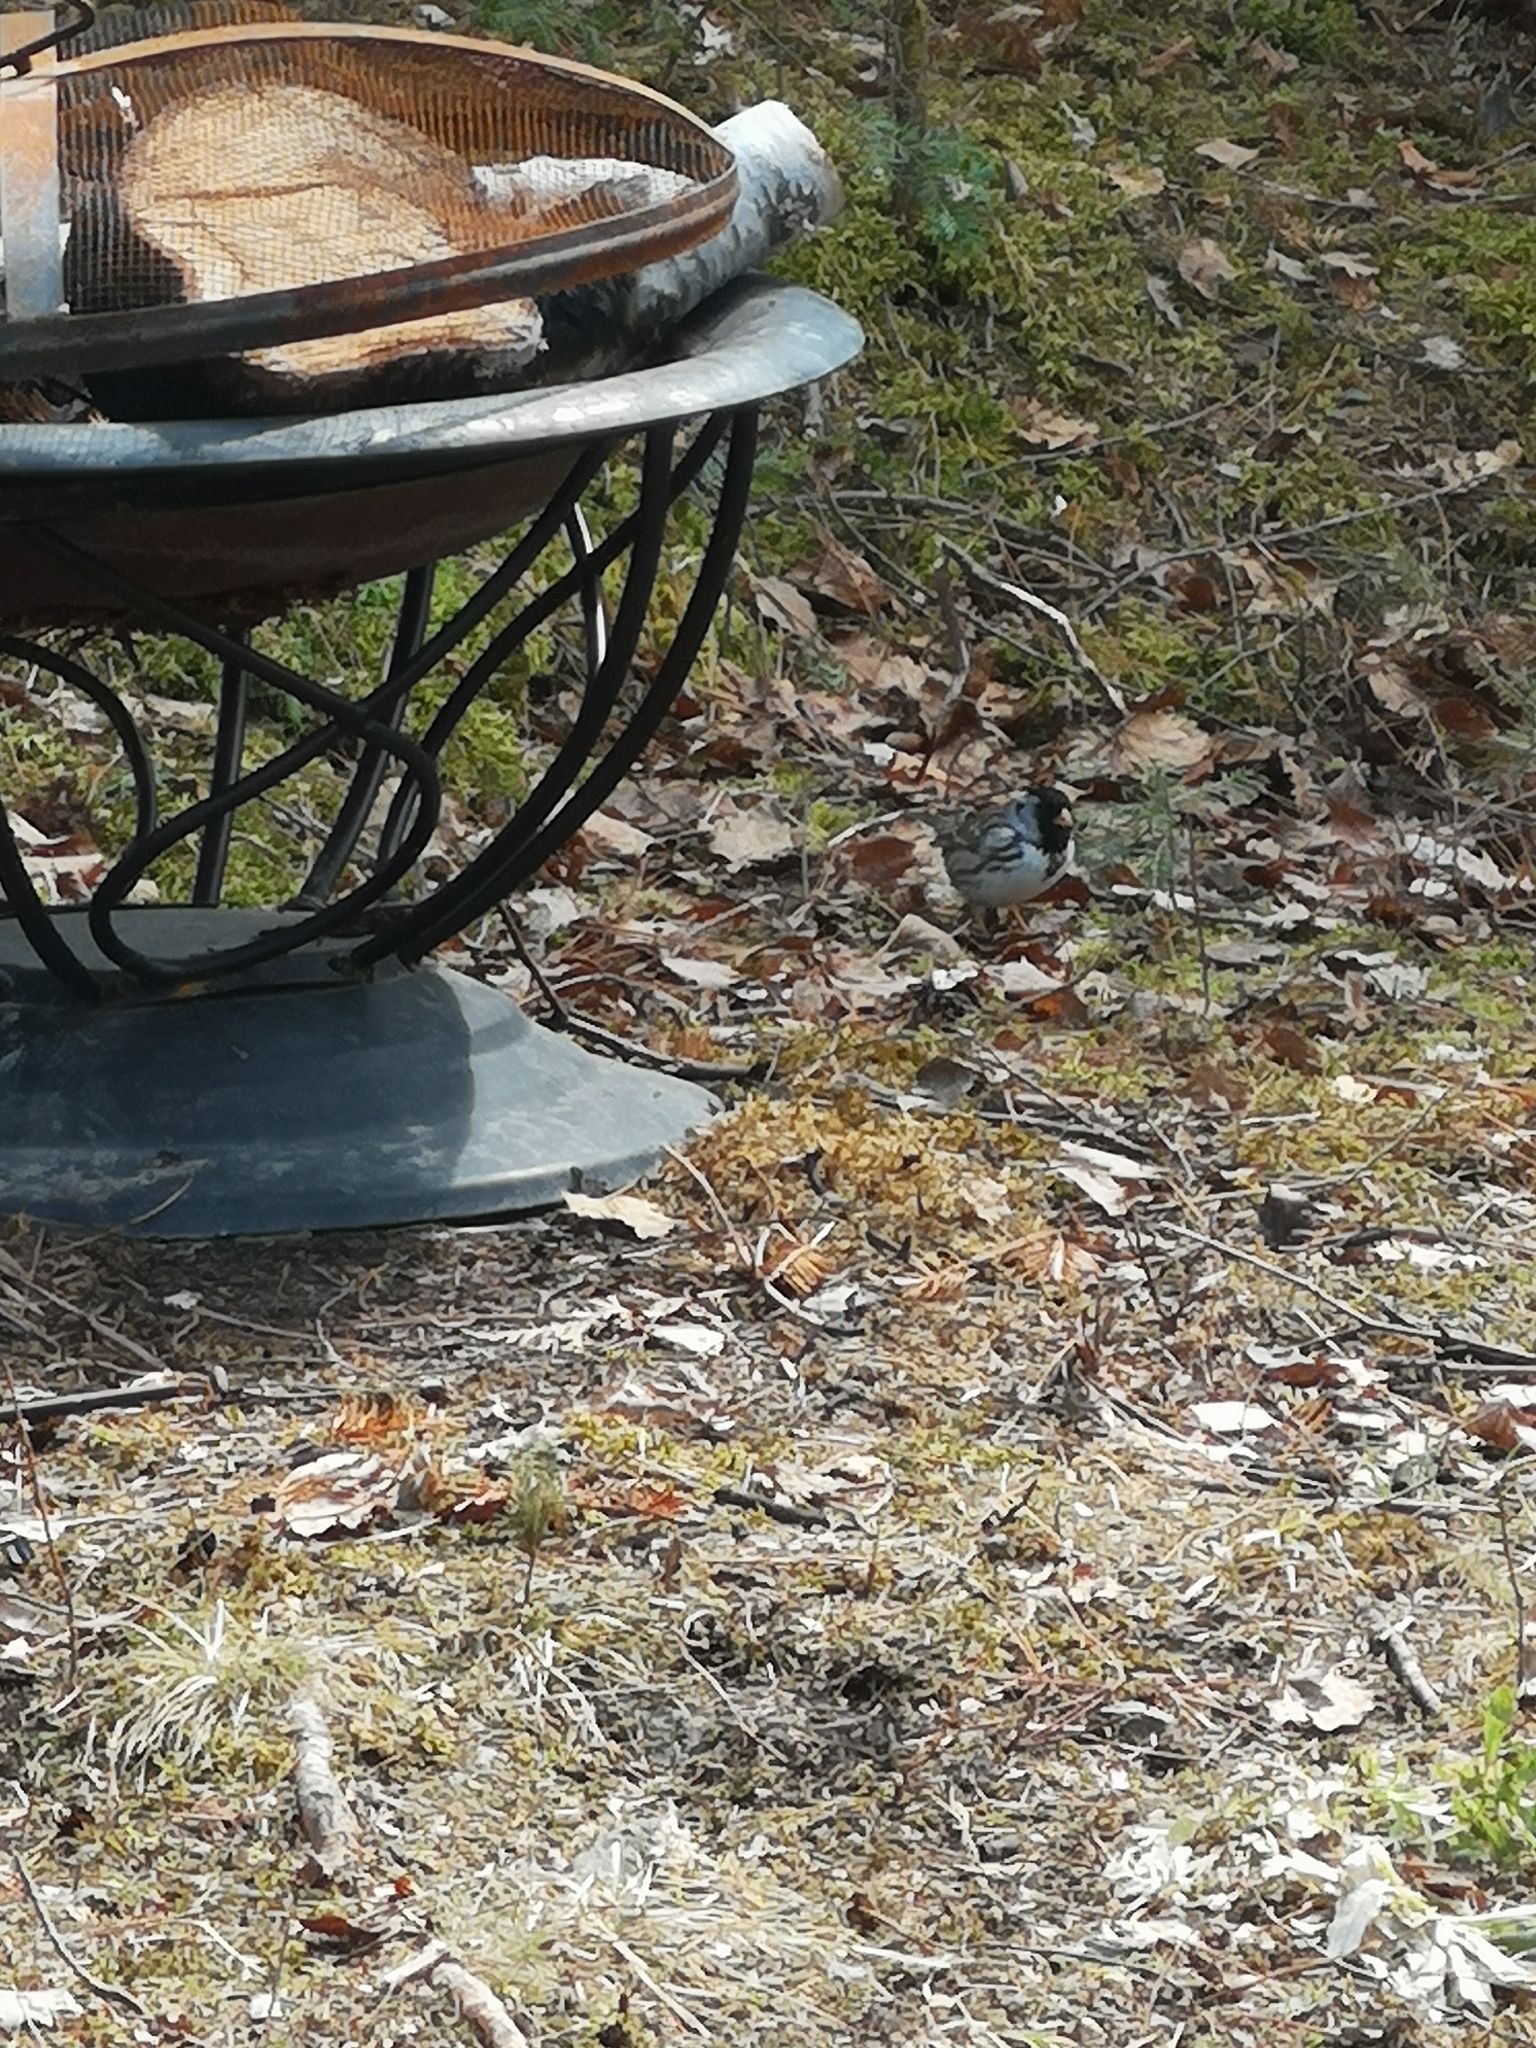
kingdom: Animalia
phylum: Chordata
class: Aves
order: Passeriformes
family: Passerellidae
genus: Zonotrichia
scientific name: Zonotrichia querula
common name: Harris's sparrow
